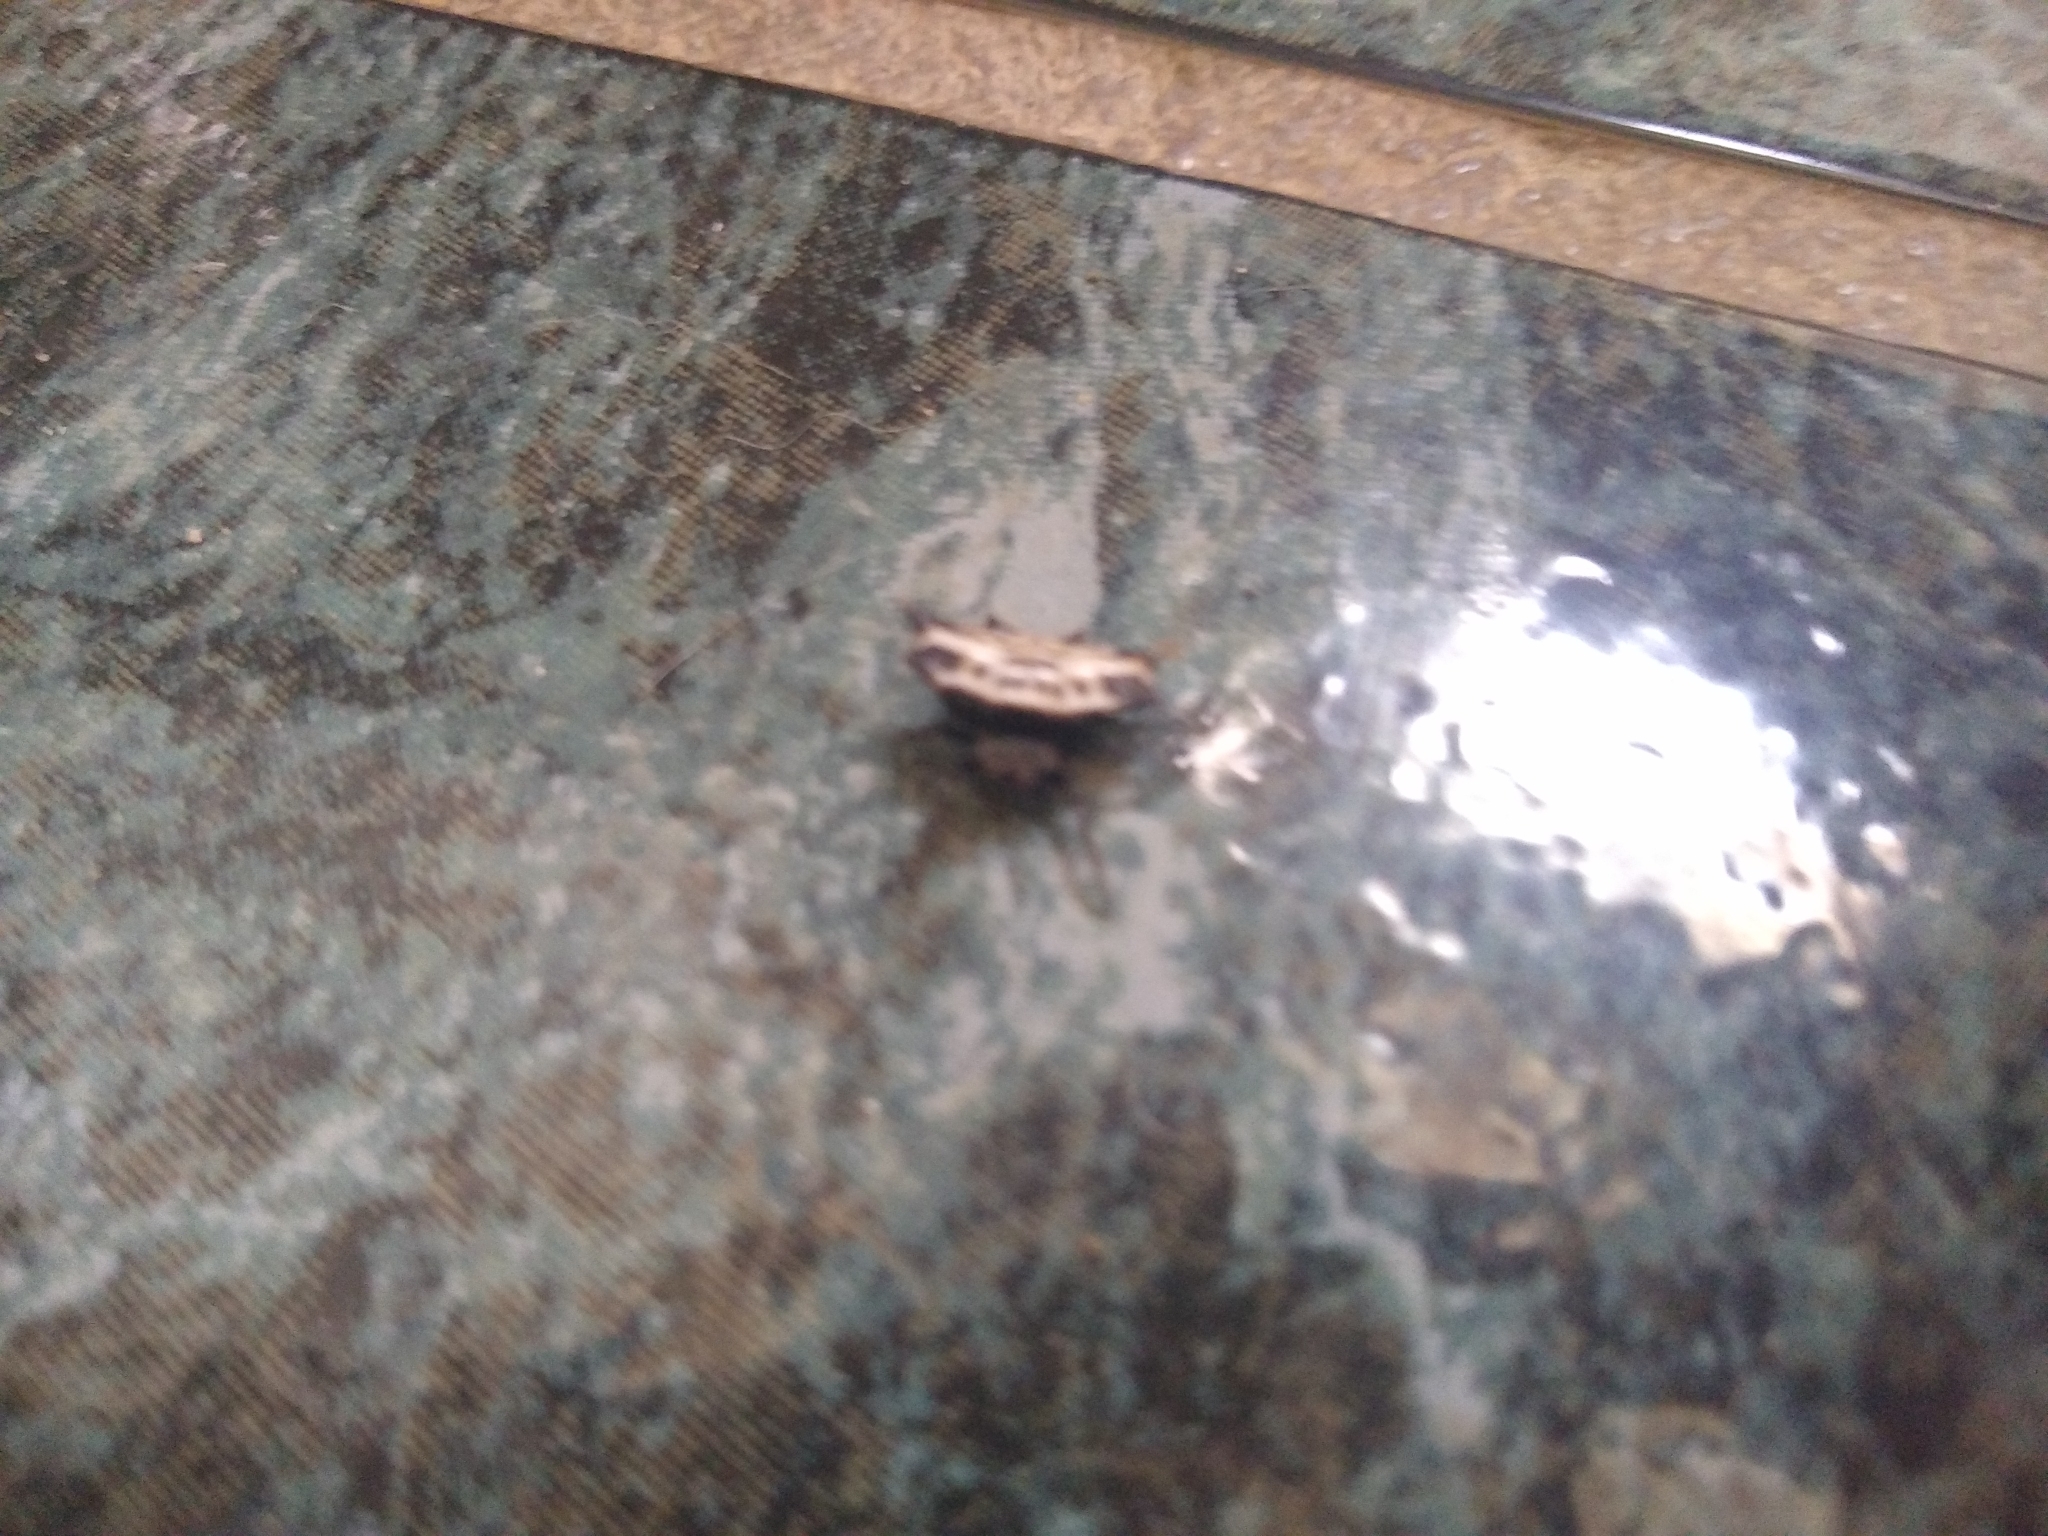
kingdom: Animalia
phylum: Arthropoda
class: Arachnida
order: Araneae
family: Araneidae
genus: Gasteracantha
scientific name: Gasteracantha cancriformis
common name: Orb weavers
